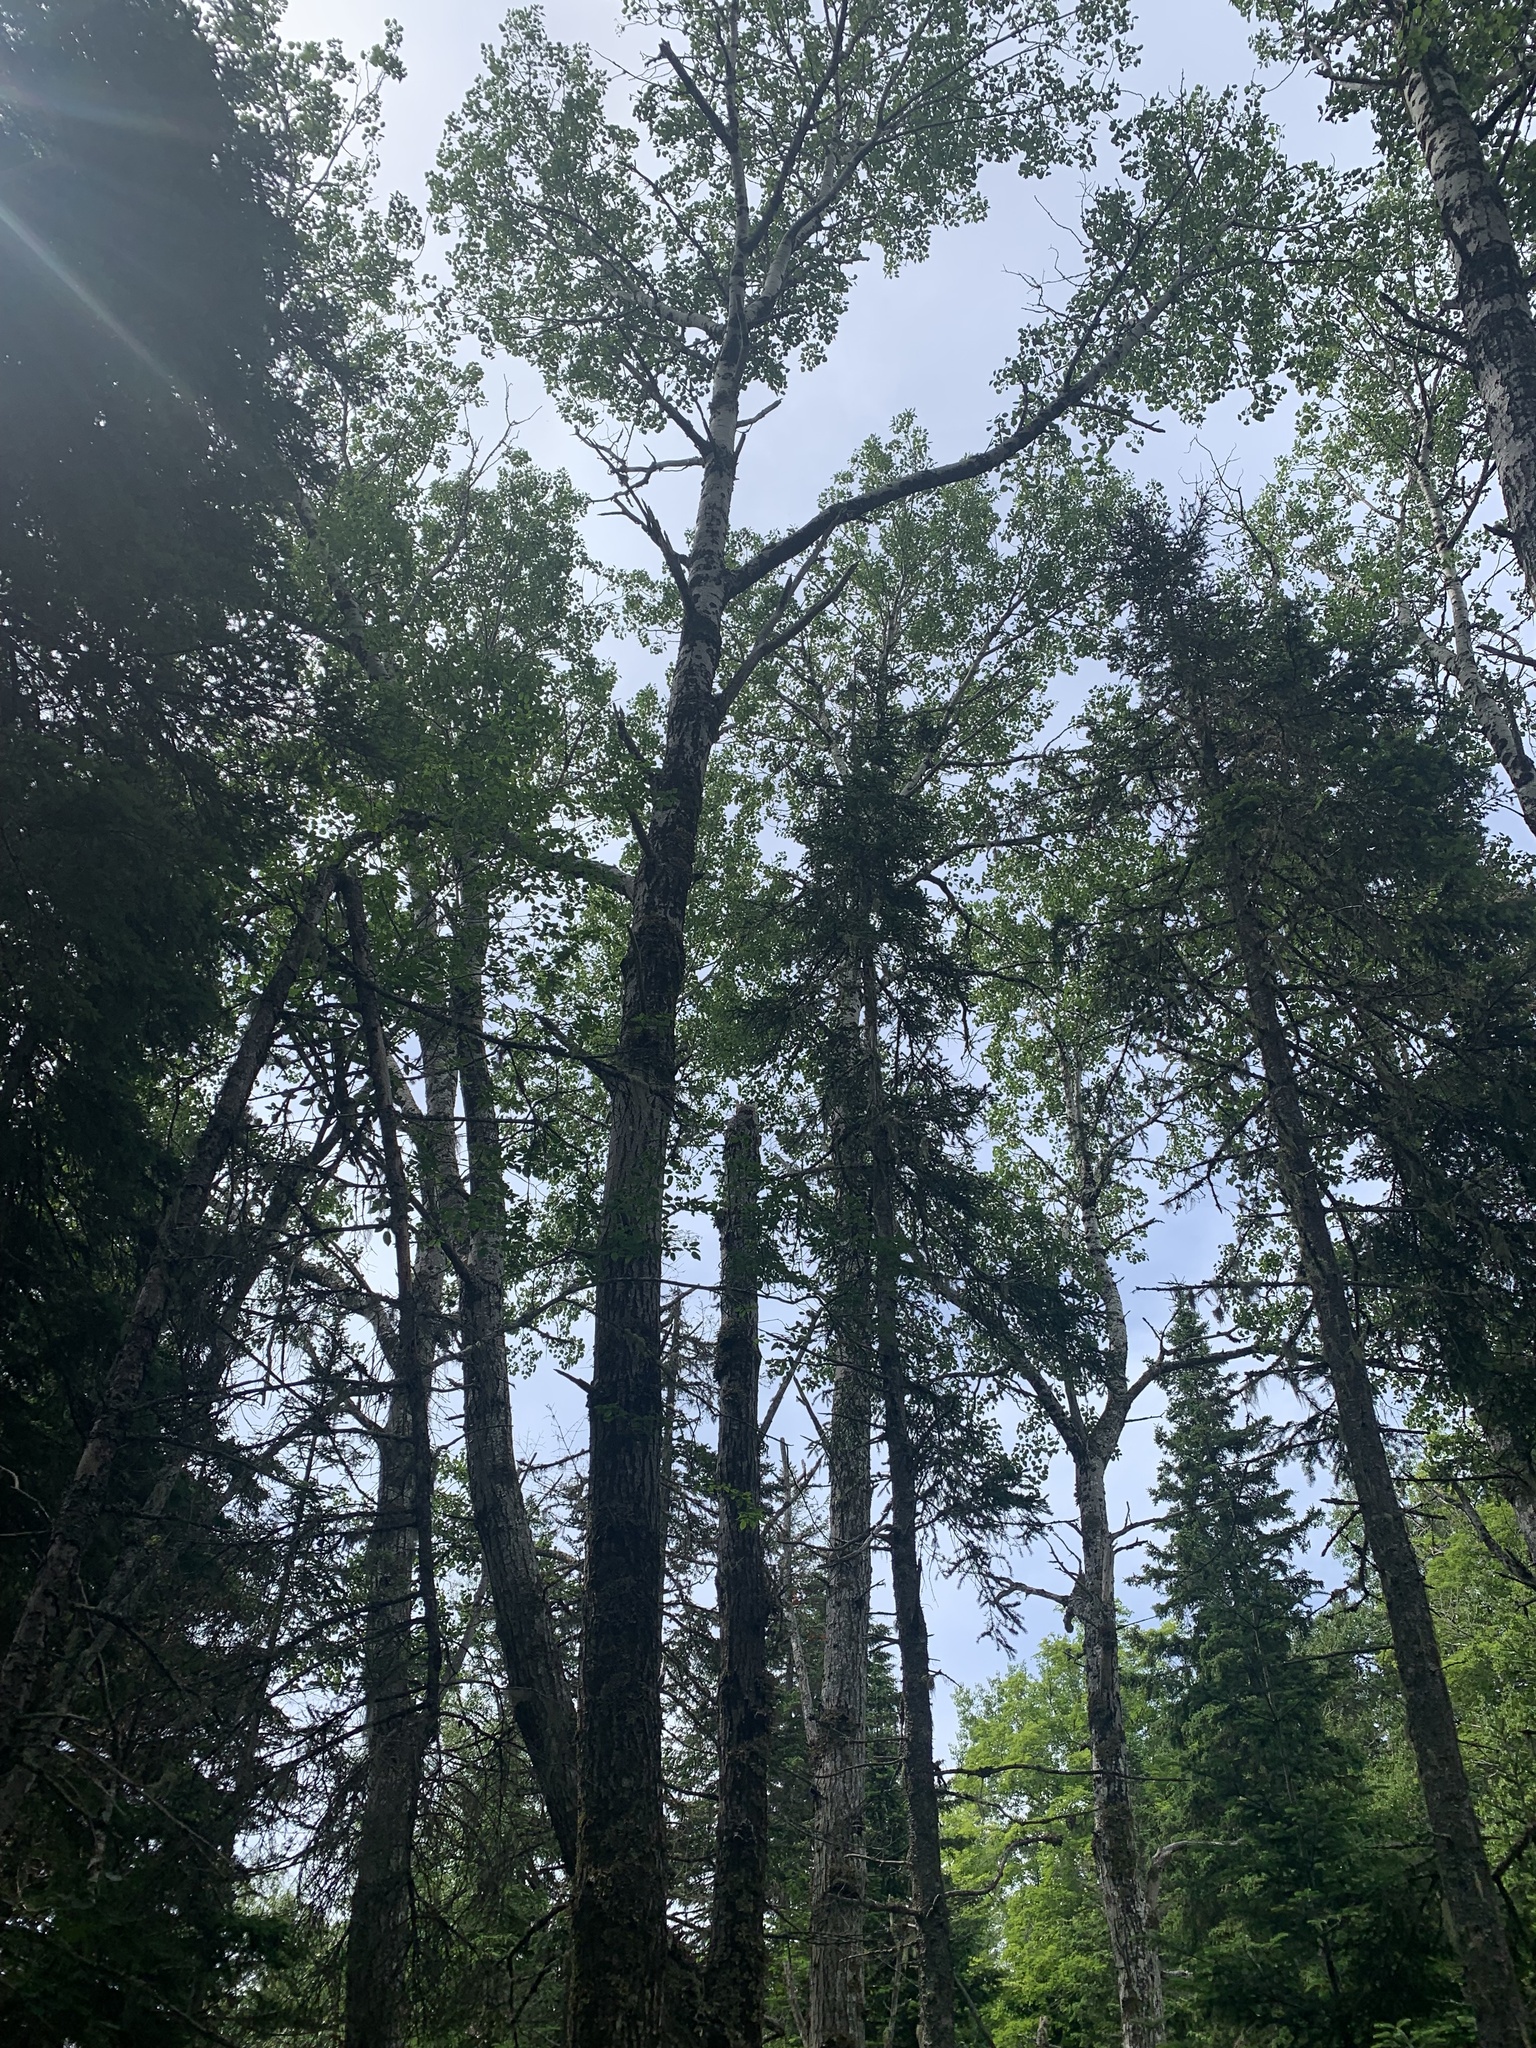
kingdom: Plantae
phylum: Tracheophyta
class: Magnoliopsida
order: Malpighiales
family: Salicaceae
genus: Populus
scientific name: Populus tremuloides
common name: Quaking aspen
